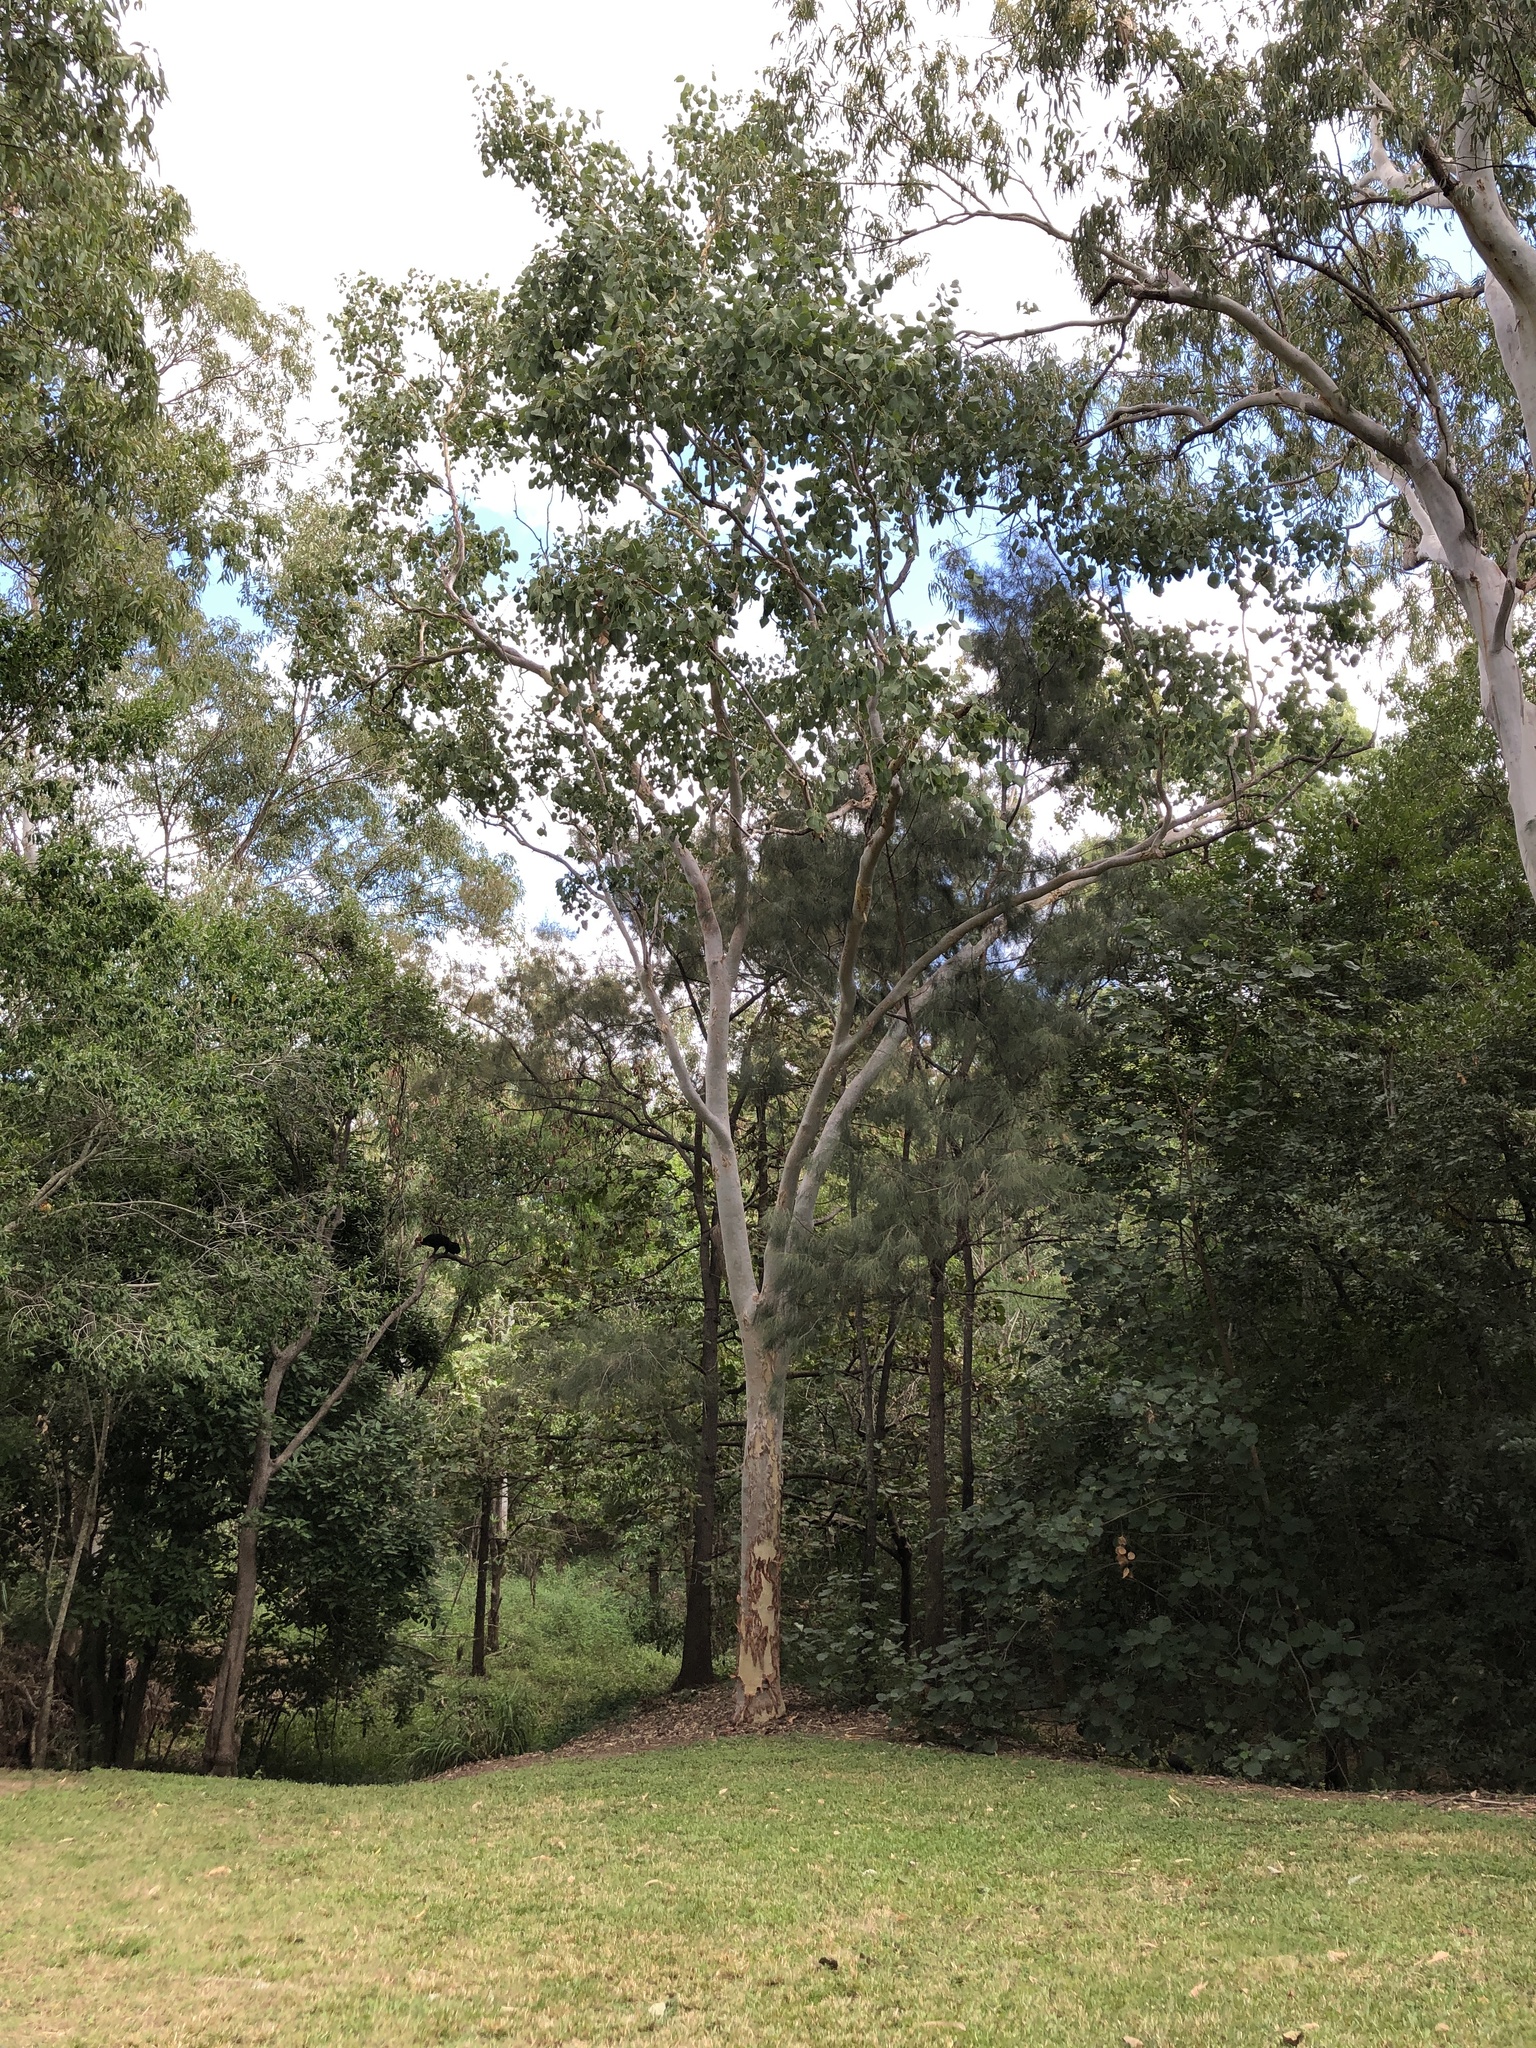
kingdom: Plantae
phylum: Tracheophyta
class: Magnoliopsida
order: Myrtales
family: Myrtaceae
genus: Eucalyptus
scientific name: Eucalyptus platyphylla
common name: Poplar-gum
